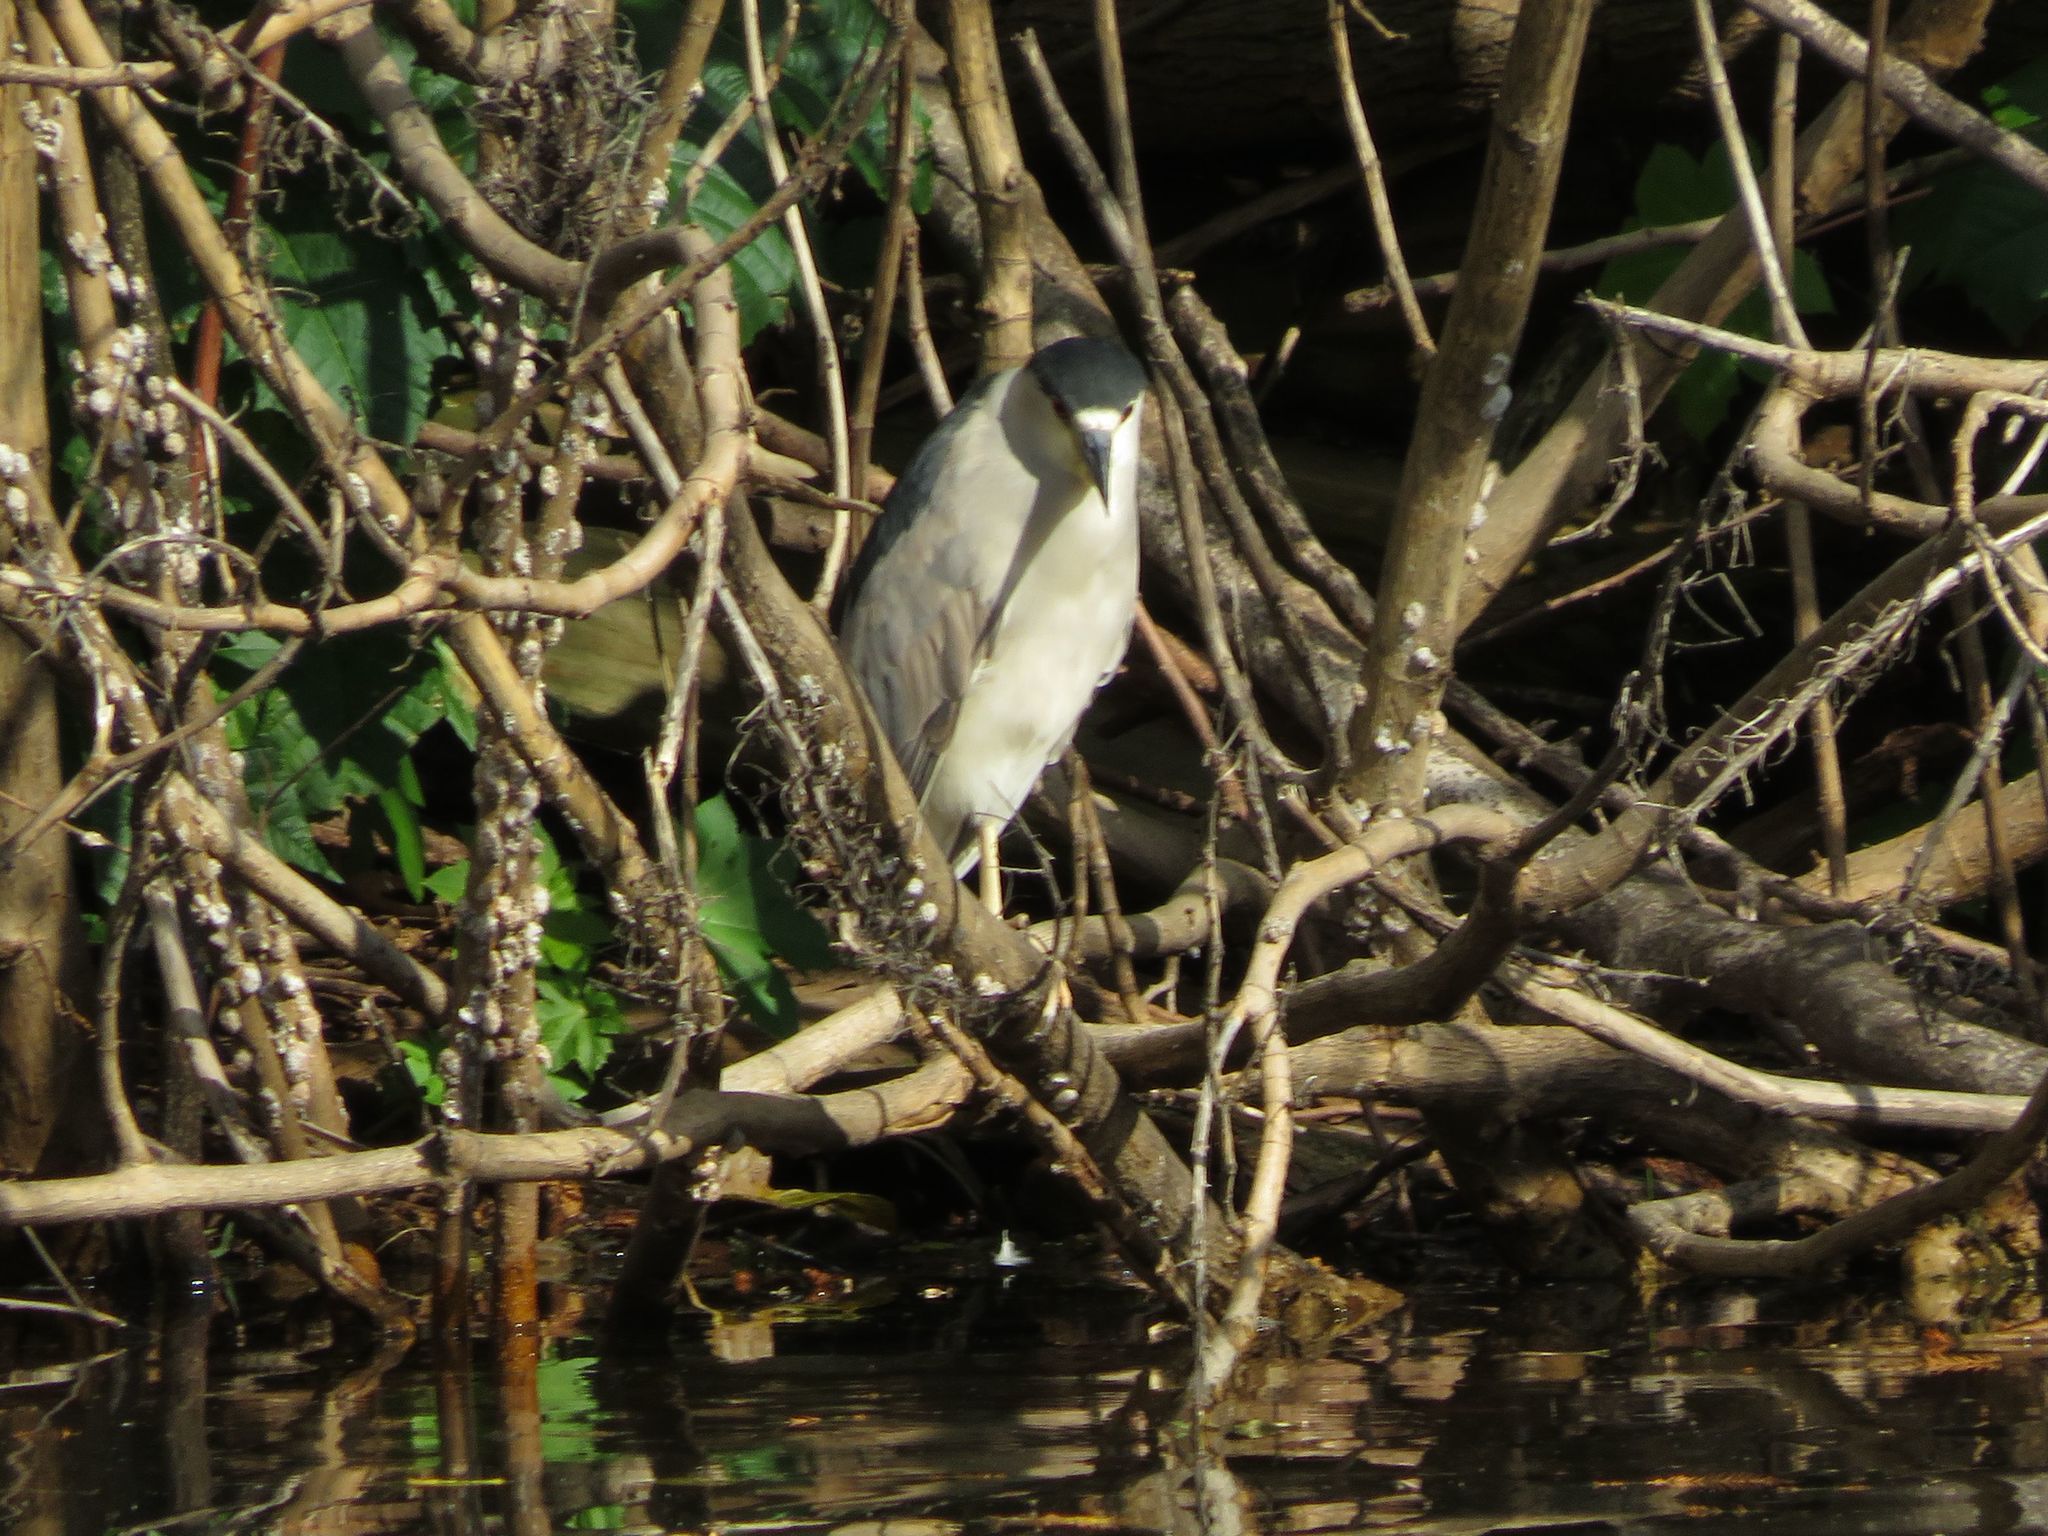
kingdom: Animalia
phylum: Chordata
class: Aves
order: Pelecaniformes
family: Ardeidae
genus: Nycticorax
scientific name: Nycticorax nycticorax
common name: Black-crowned night heron
